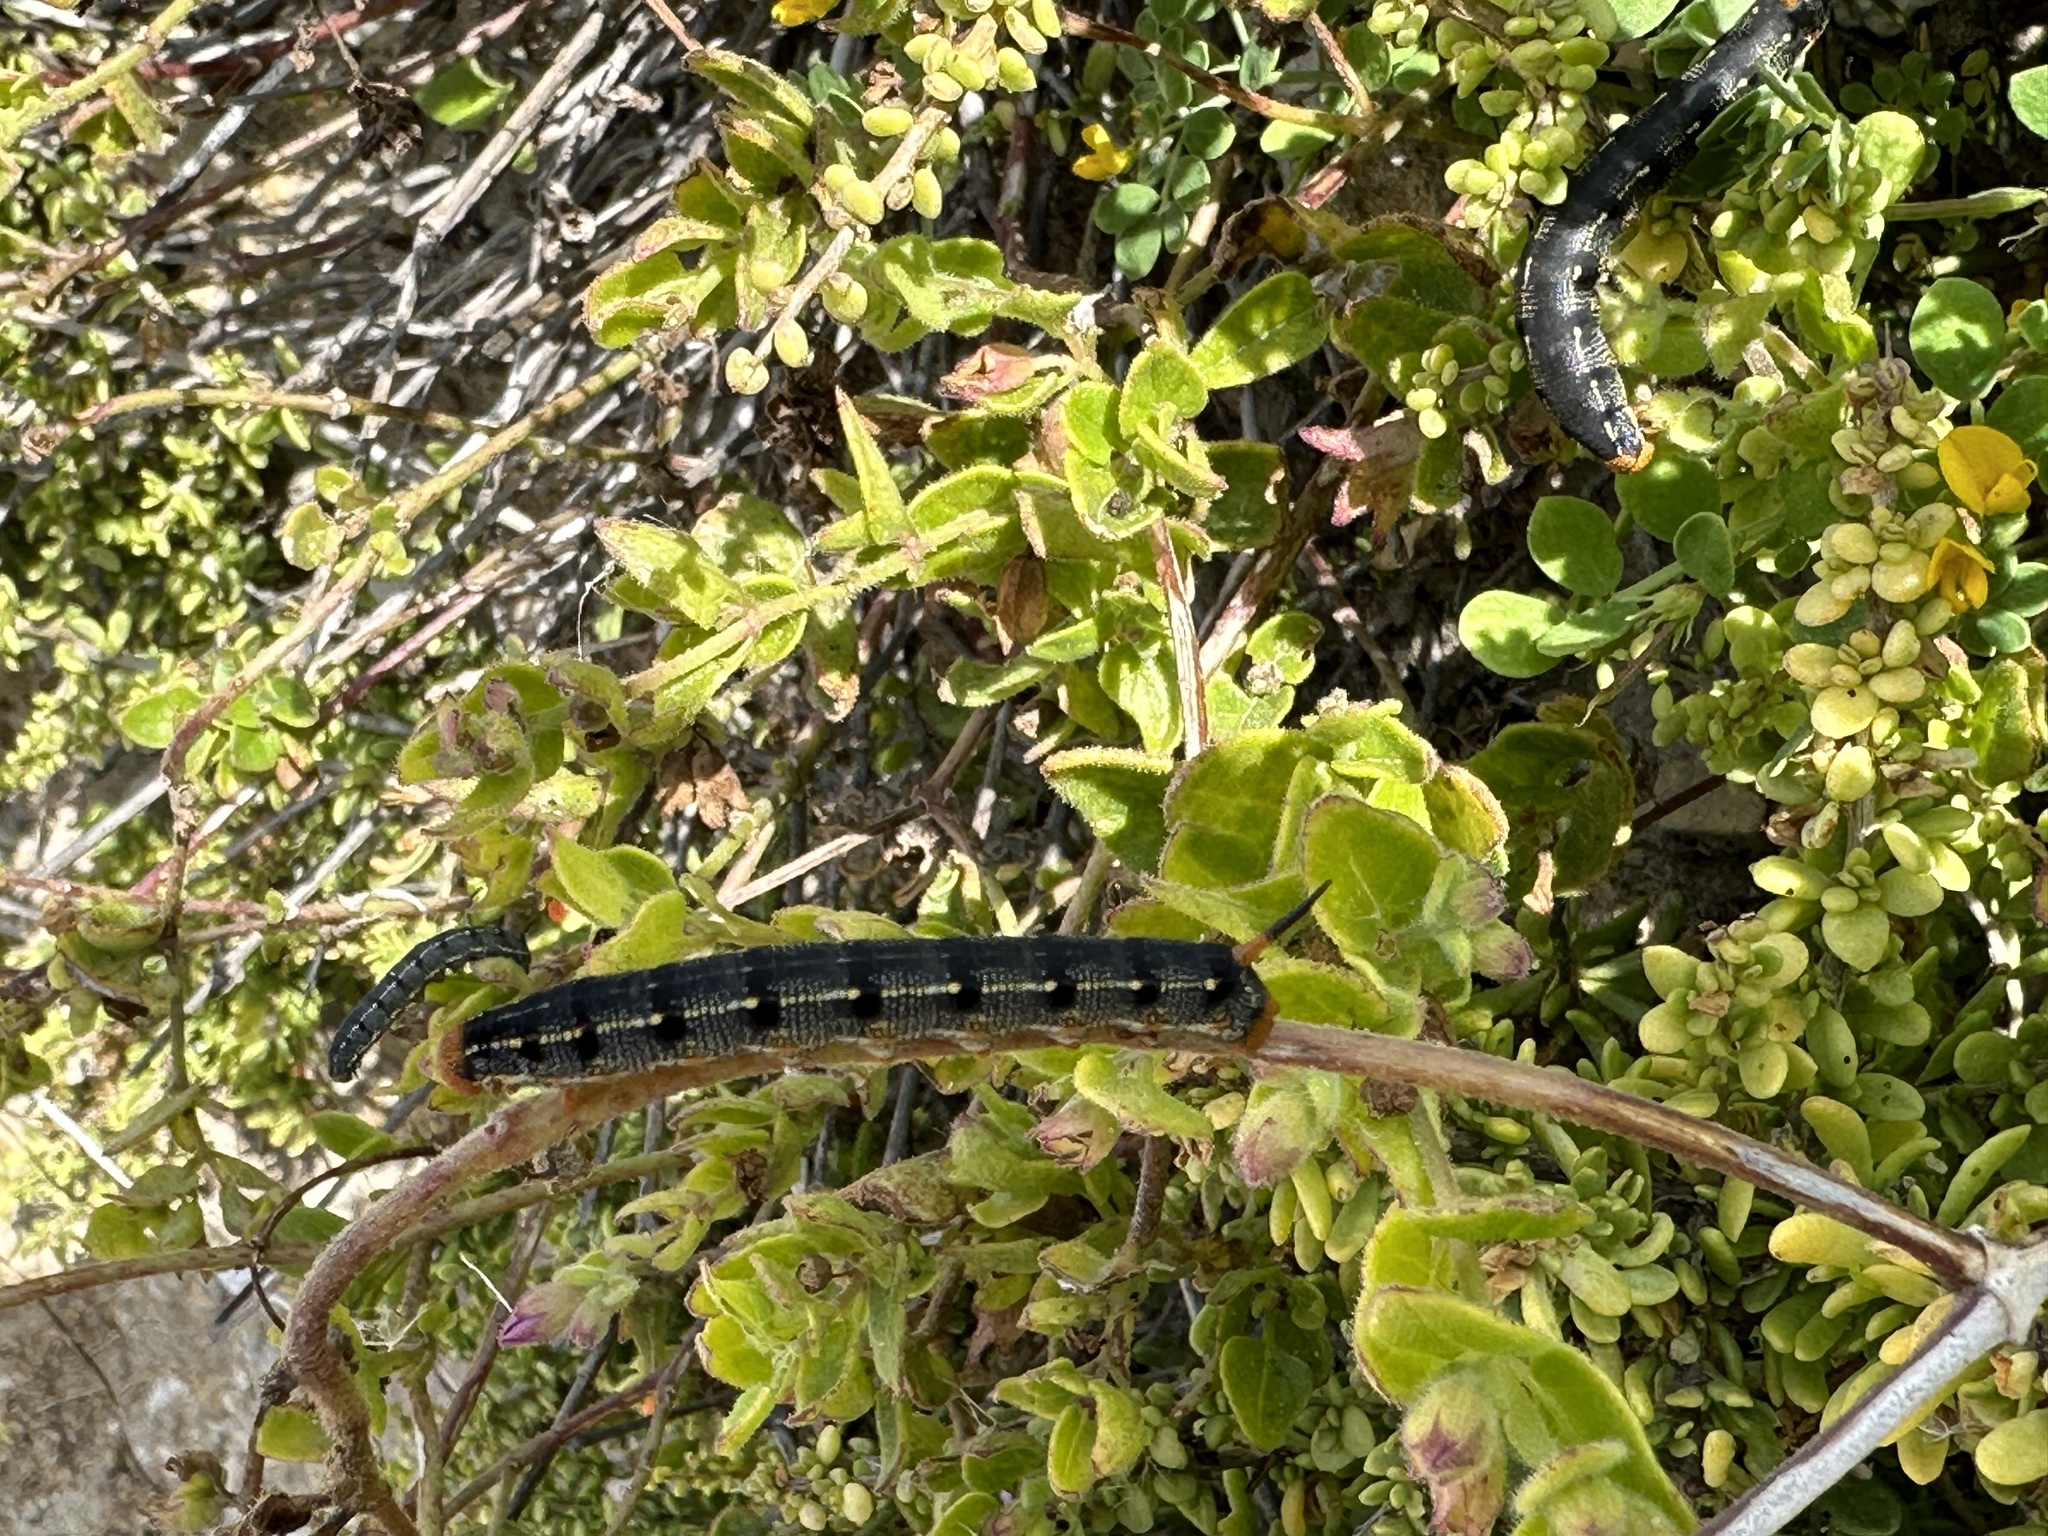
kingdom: Animalia
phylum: Arthropoda
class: Insecta
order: Lepidoptera
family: Sphingidae
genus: Hyles
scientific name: Hyles lineata
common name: White-lined sphinx
